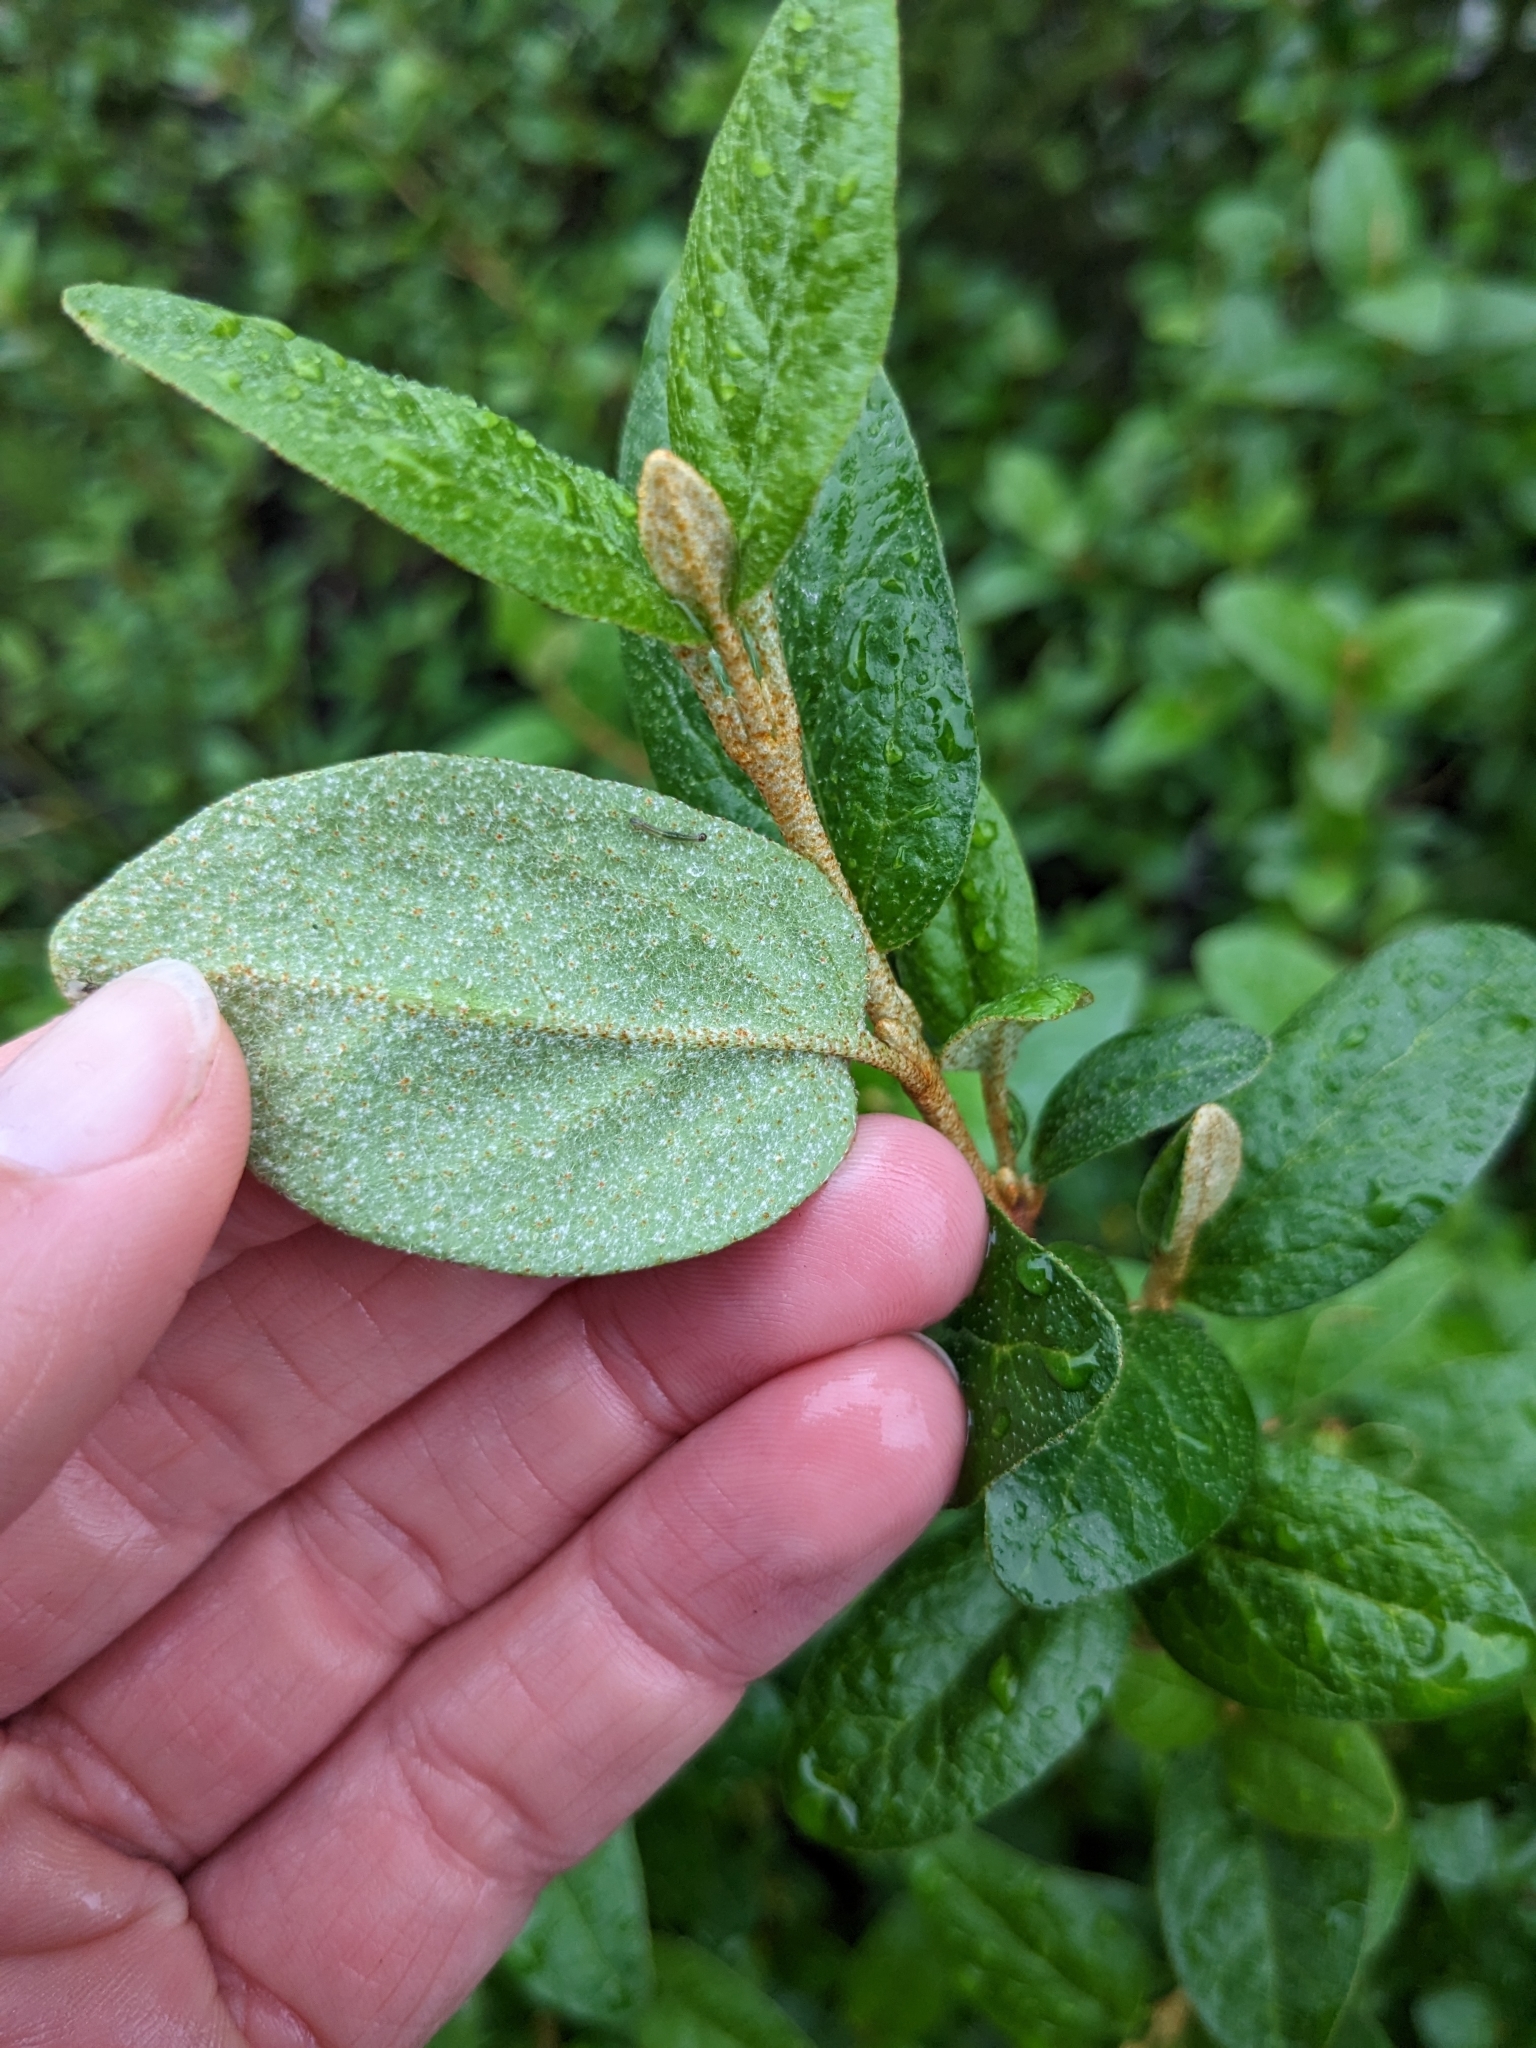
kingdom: Plantae
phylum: Tracheophyta
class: Magnoliopsida
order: Rosales
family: Elaeagnaceae
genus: Shepherdia
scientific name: Shepherdia canadensis
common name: Soapberry
